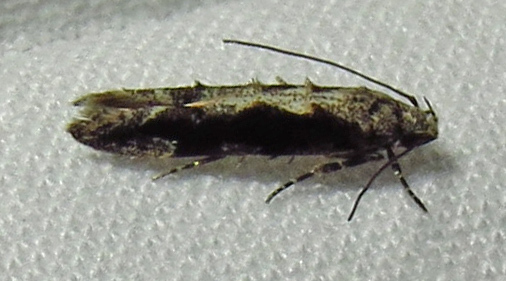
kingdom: Animalia
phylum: Arthropoda
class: Insecta
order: Lepidoptera
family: Gelechiidae
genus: Coleotechnites
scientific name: Coleotechnites florae
